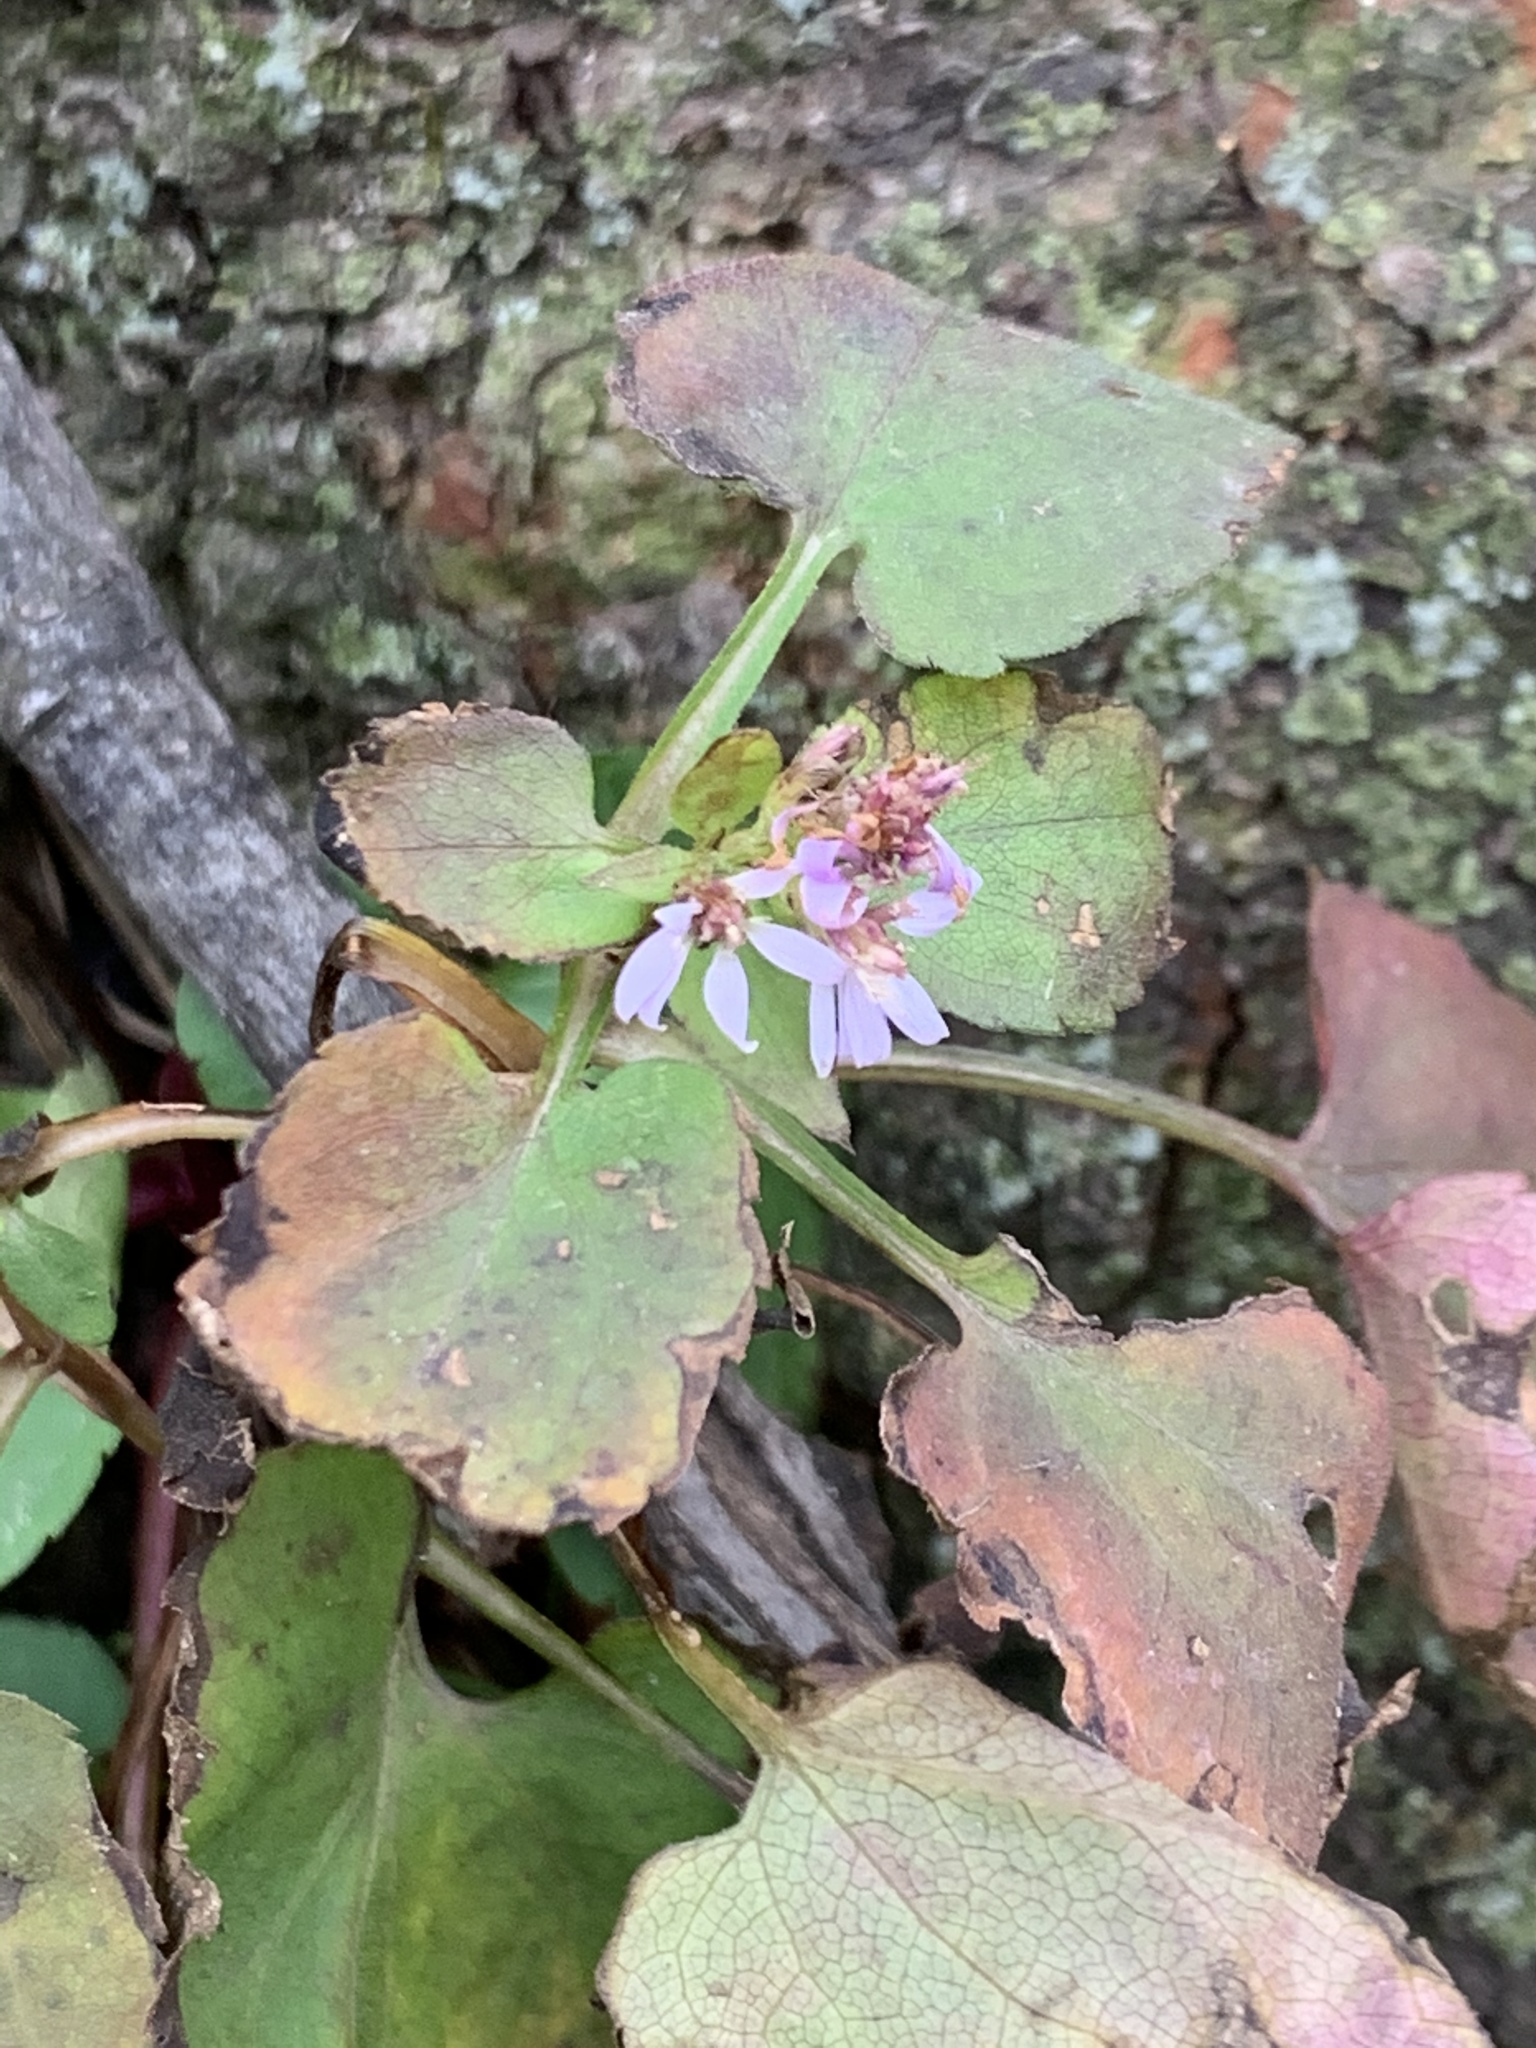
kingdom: Plantae
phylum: Tracheophyta
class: Magnoliopsida
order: Asterales
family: Asteraceae
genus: Symphyotrichum
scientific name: Symphyotrichum cordifolium
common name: Beeweed
